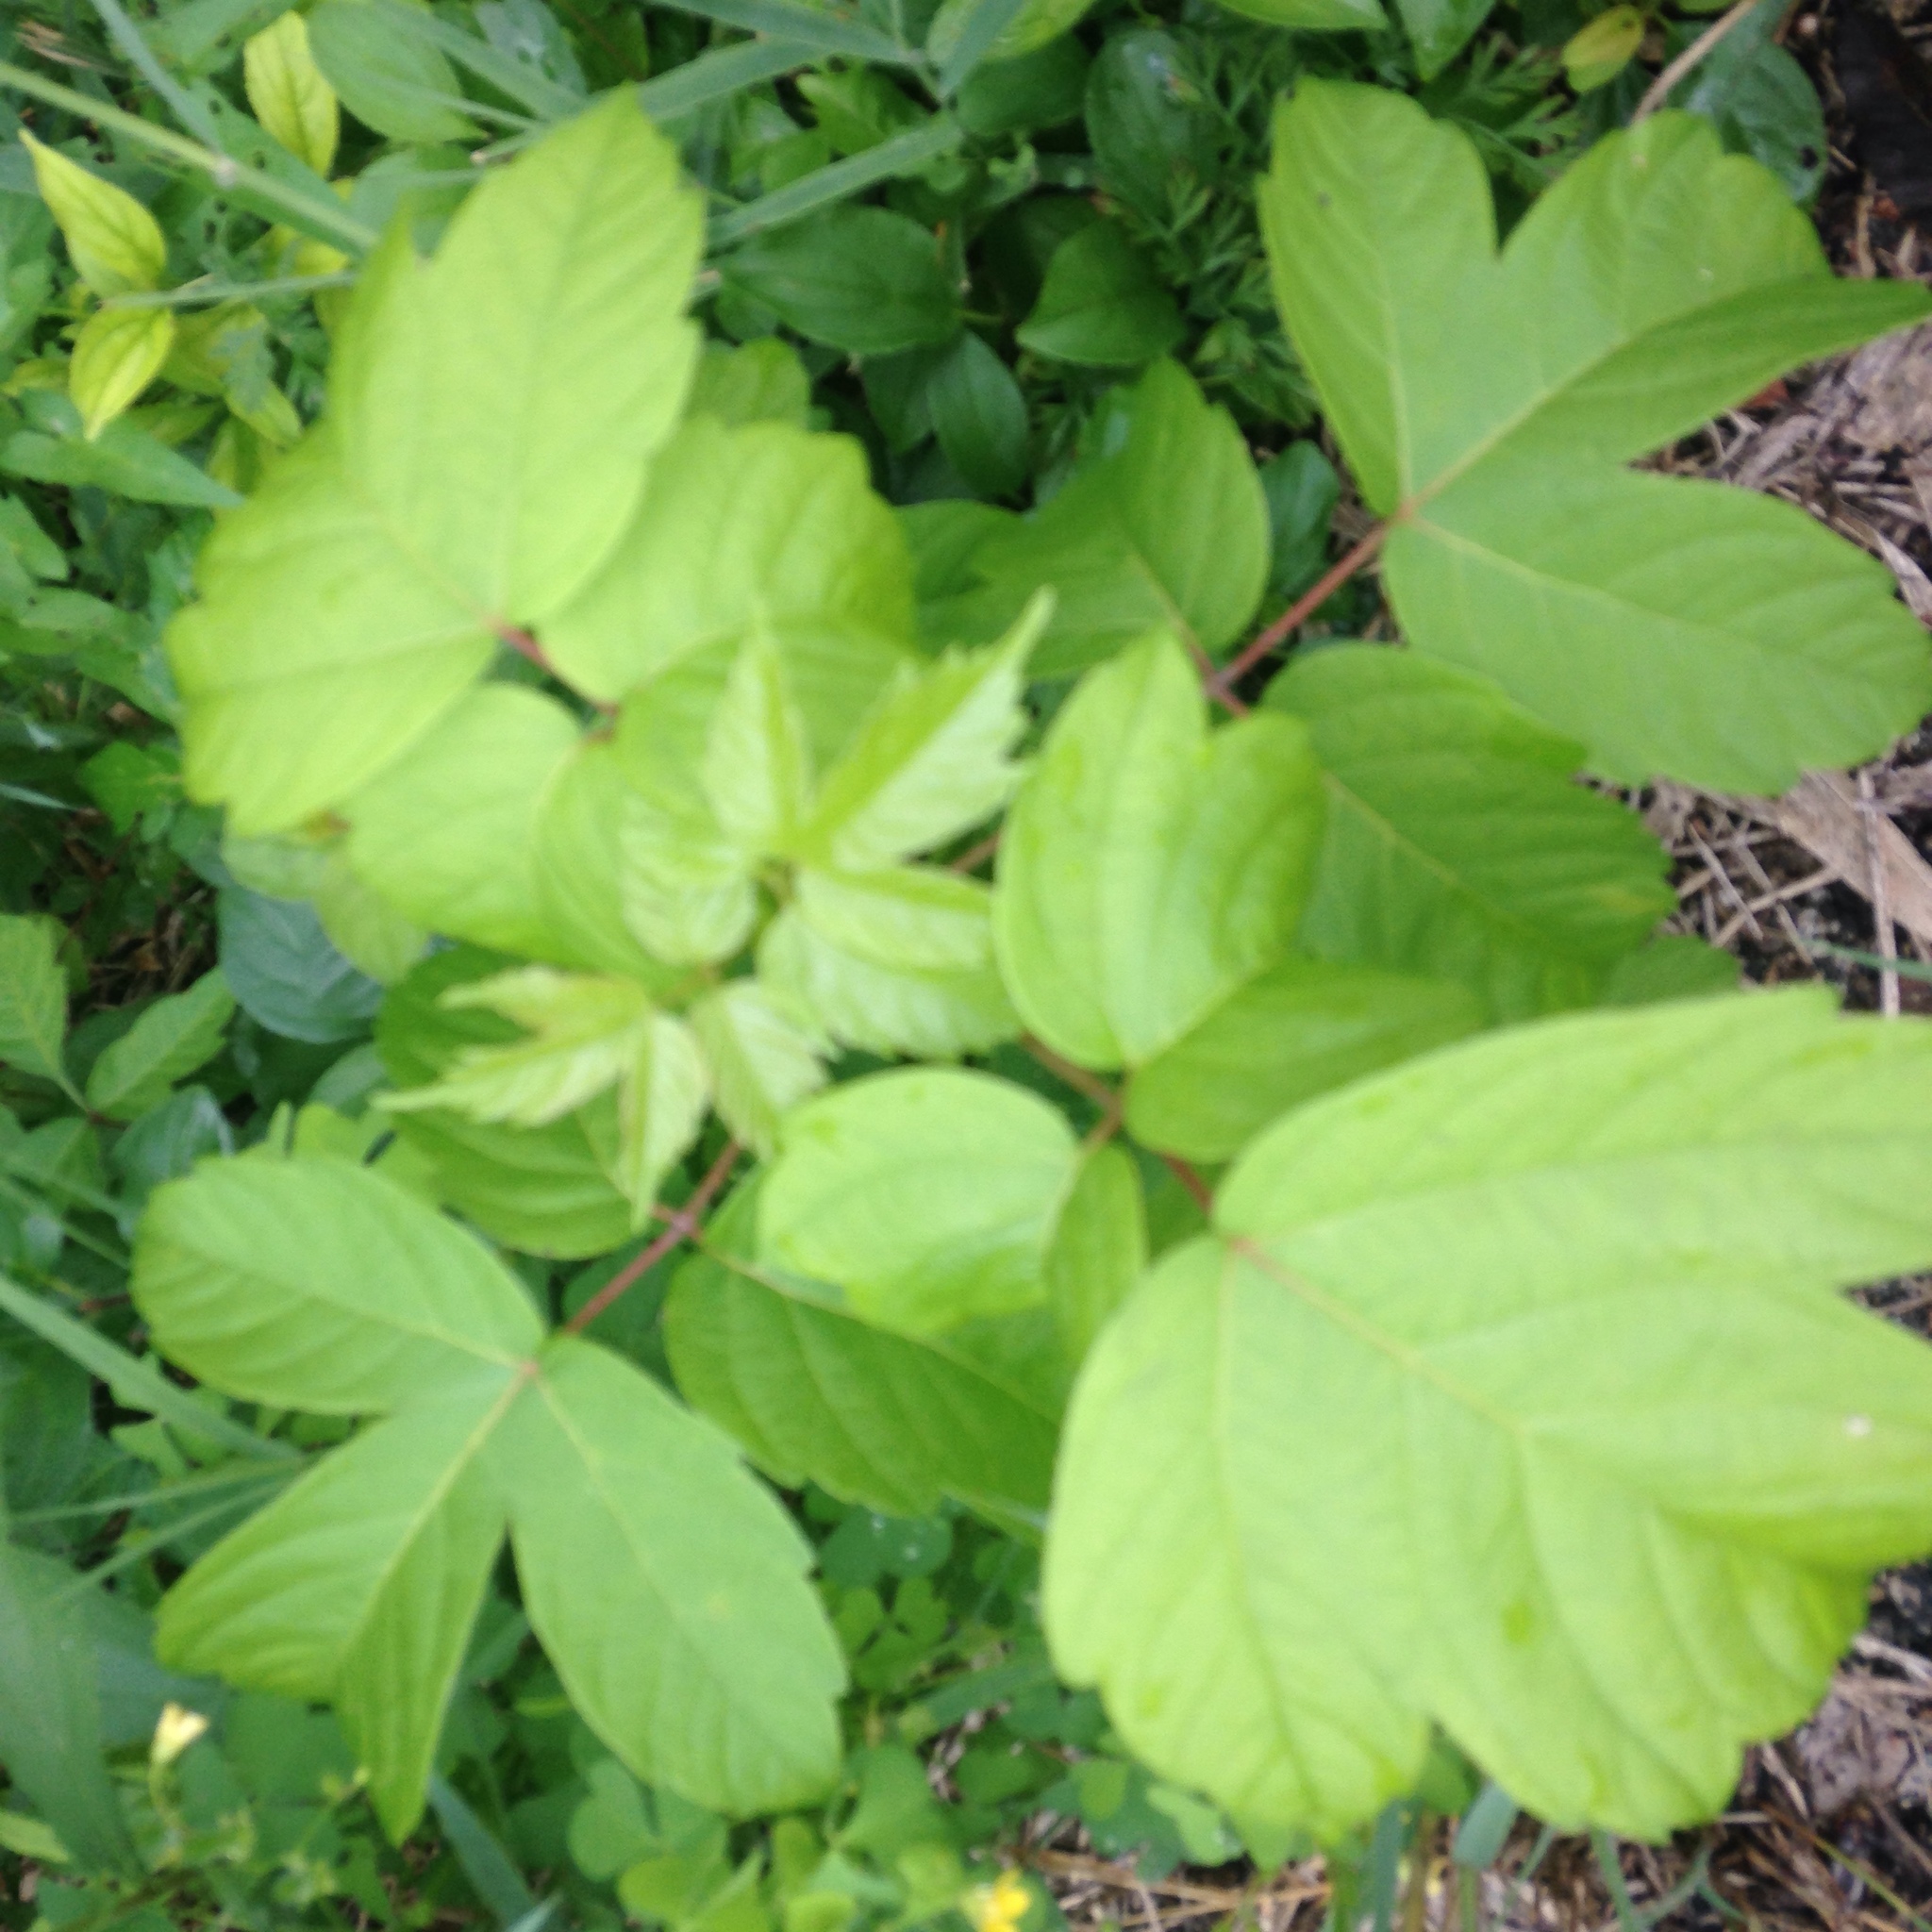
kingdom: Plantae
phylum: Tracheophyta
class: Magnoliopsida
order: Sapindales
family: Sapindaceae
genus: Acer
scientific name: Acer negundo
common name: Ashleaf maple
